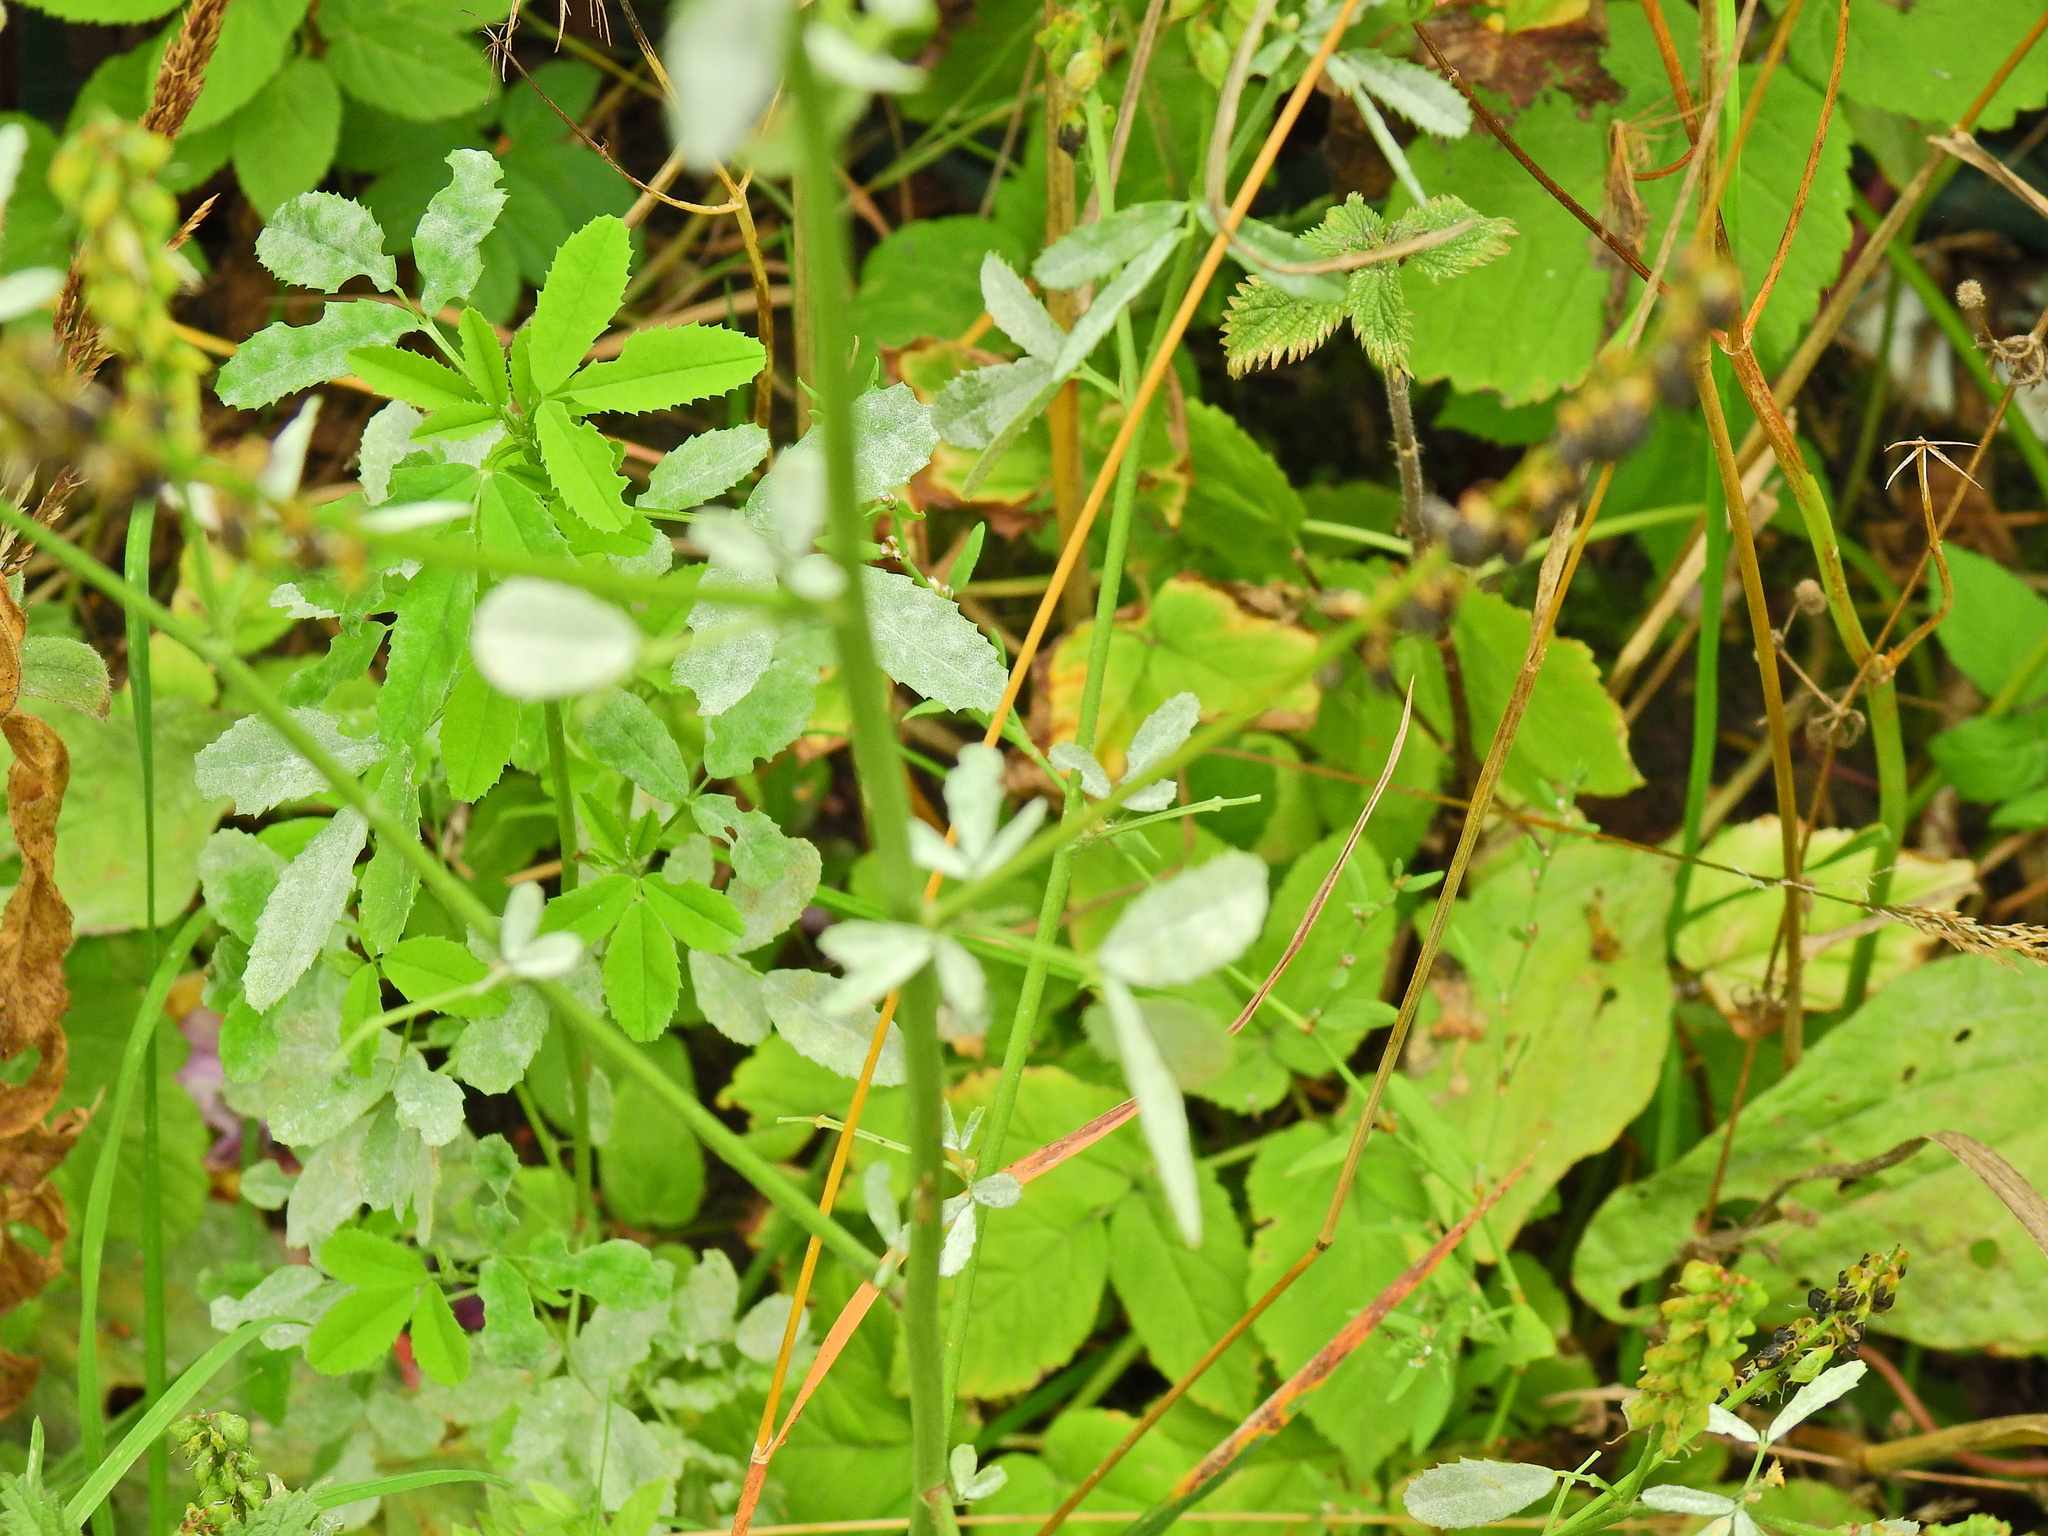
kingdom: Fungi
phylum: Ascomycota
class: Leotiomycetes
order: Helotiales
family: Erysiphaceae
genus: Erysiphe
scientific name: Erysiphe
